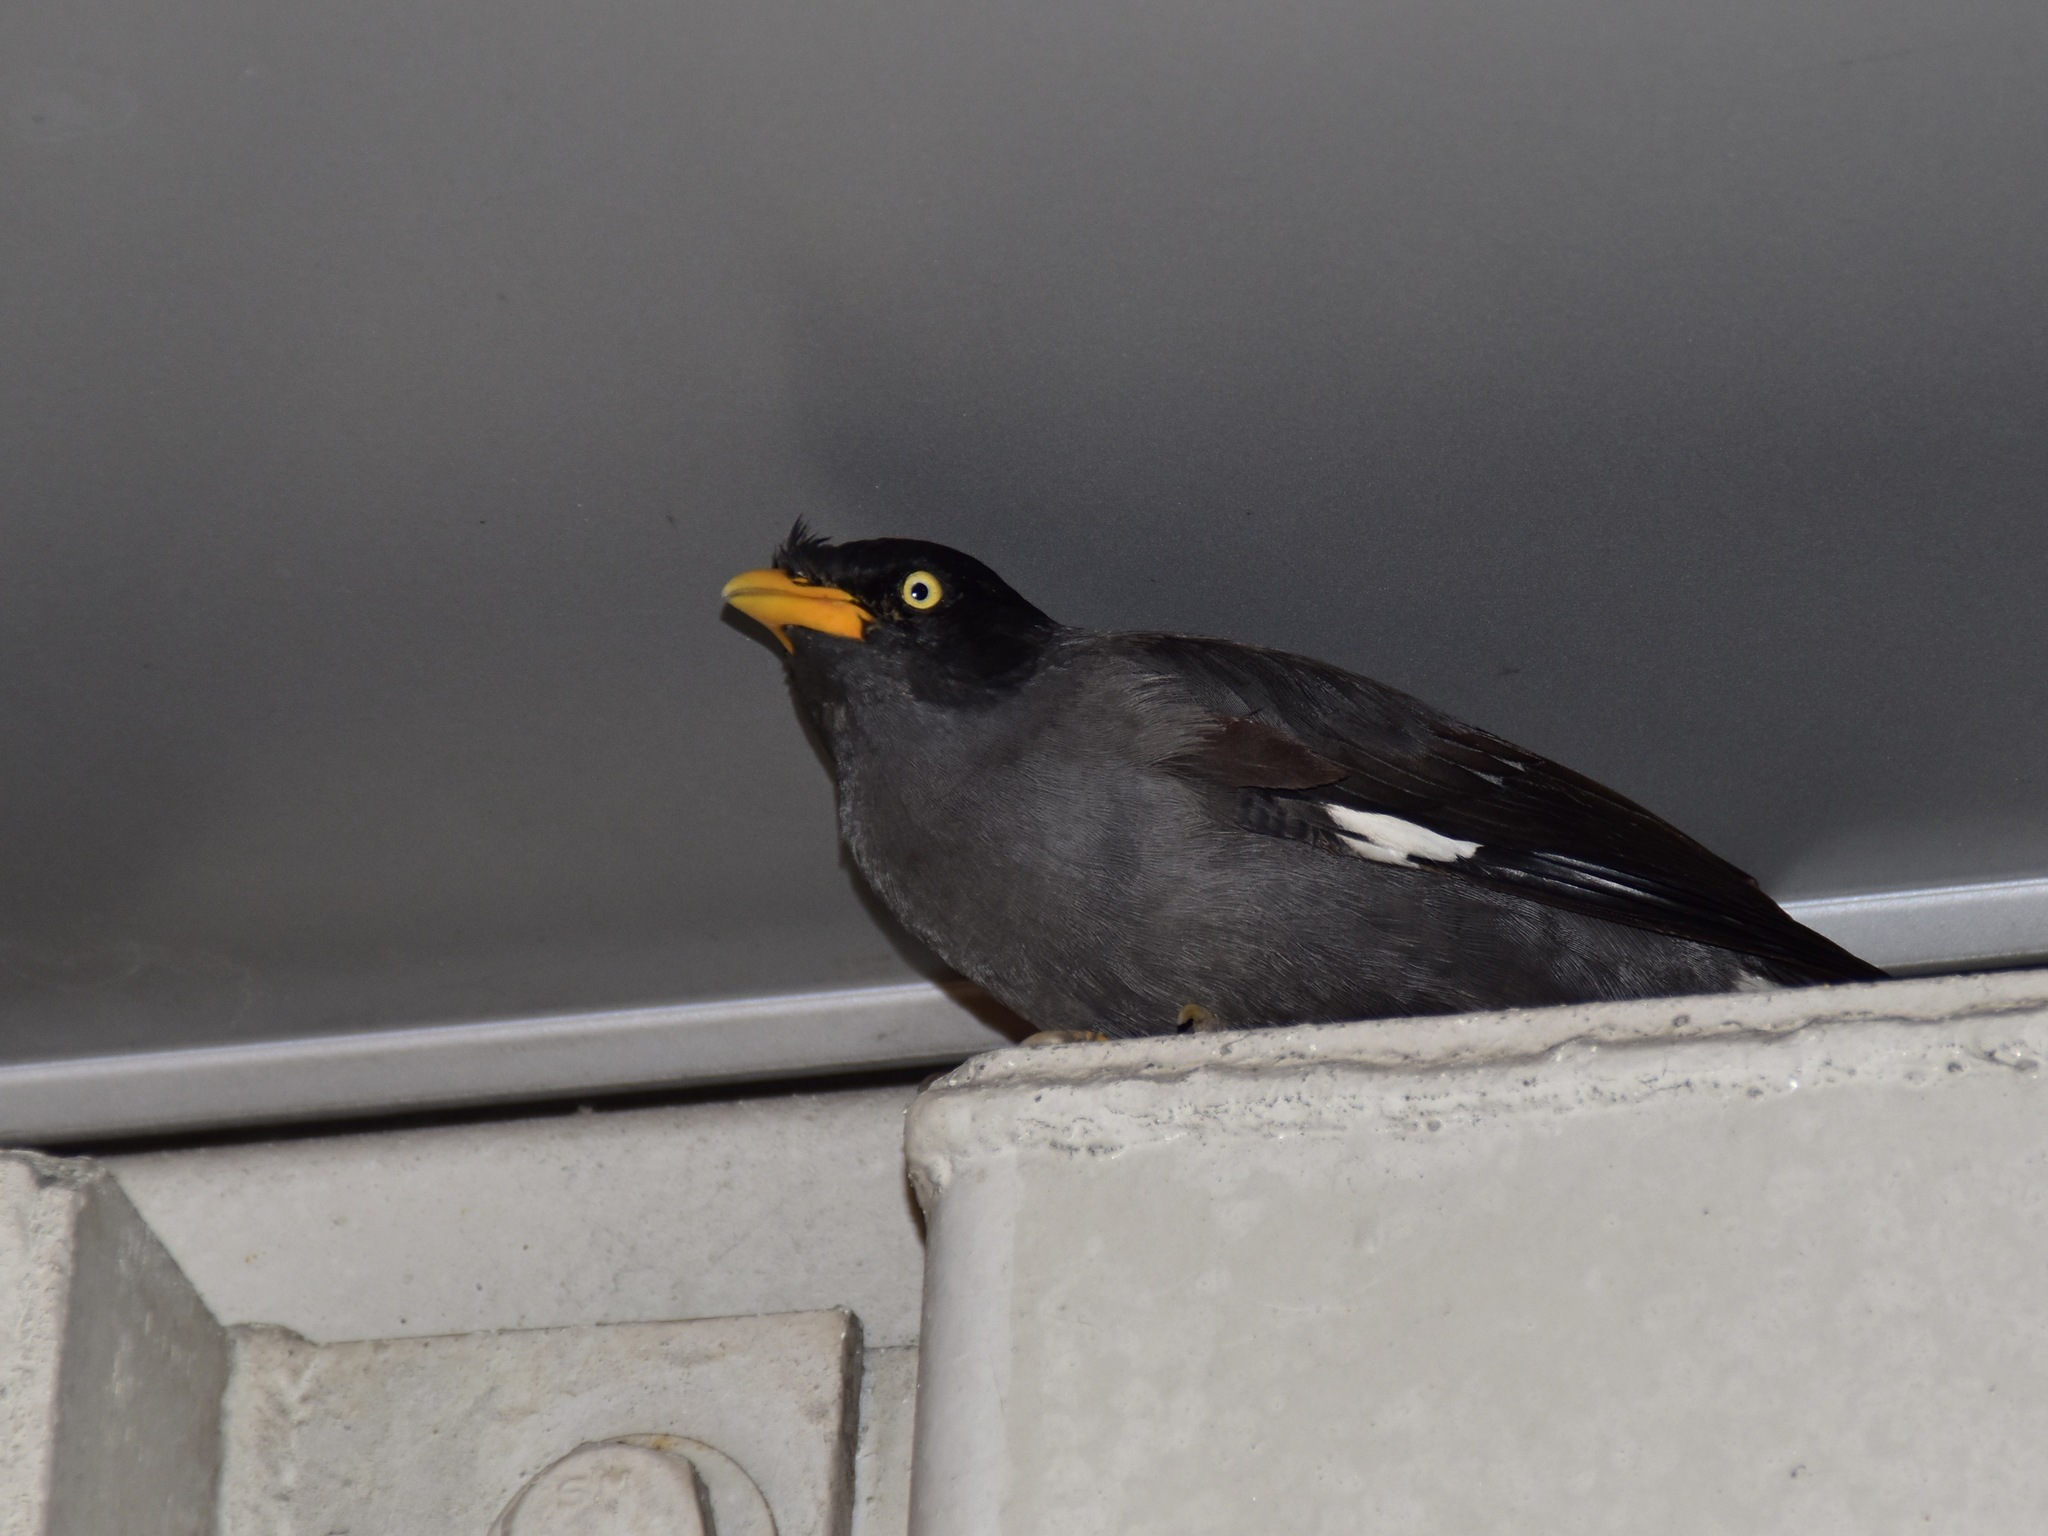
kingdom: Animalia
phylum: Chordata
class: Aves
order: Passeriformes
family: Sturnidae
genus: Acridotheres
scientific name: Acridotheres javanicus
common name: Javan myna
